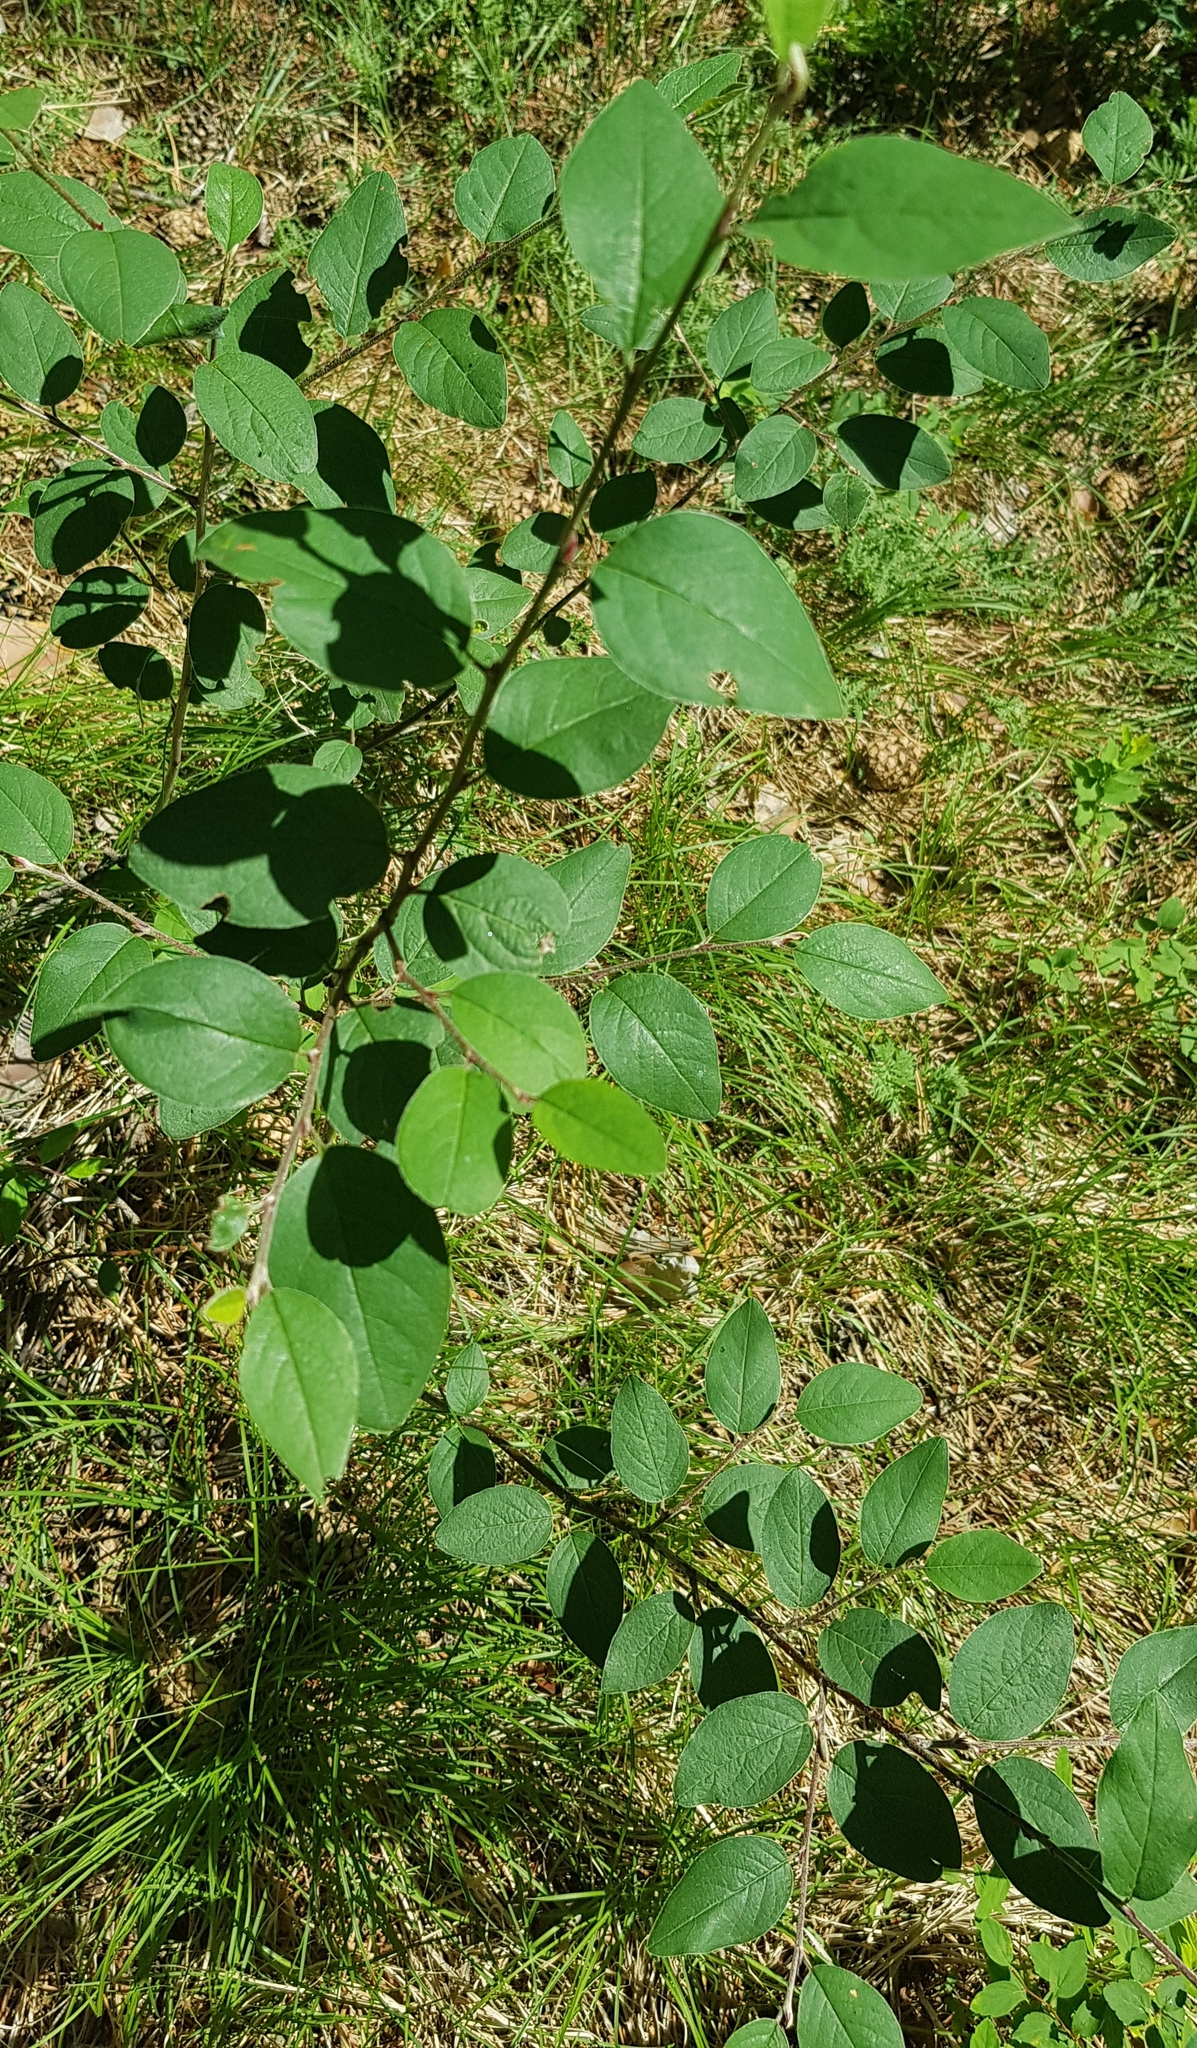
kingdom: Plantae
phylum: Tracheophyta
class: Magnoliopsida
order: Rosales
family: Rosaceae
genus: Cotoneaster
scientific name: Cotoneaster melanocarpus
